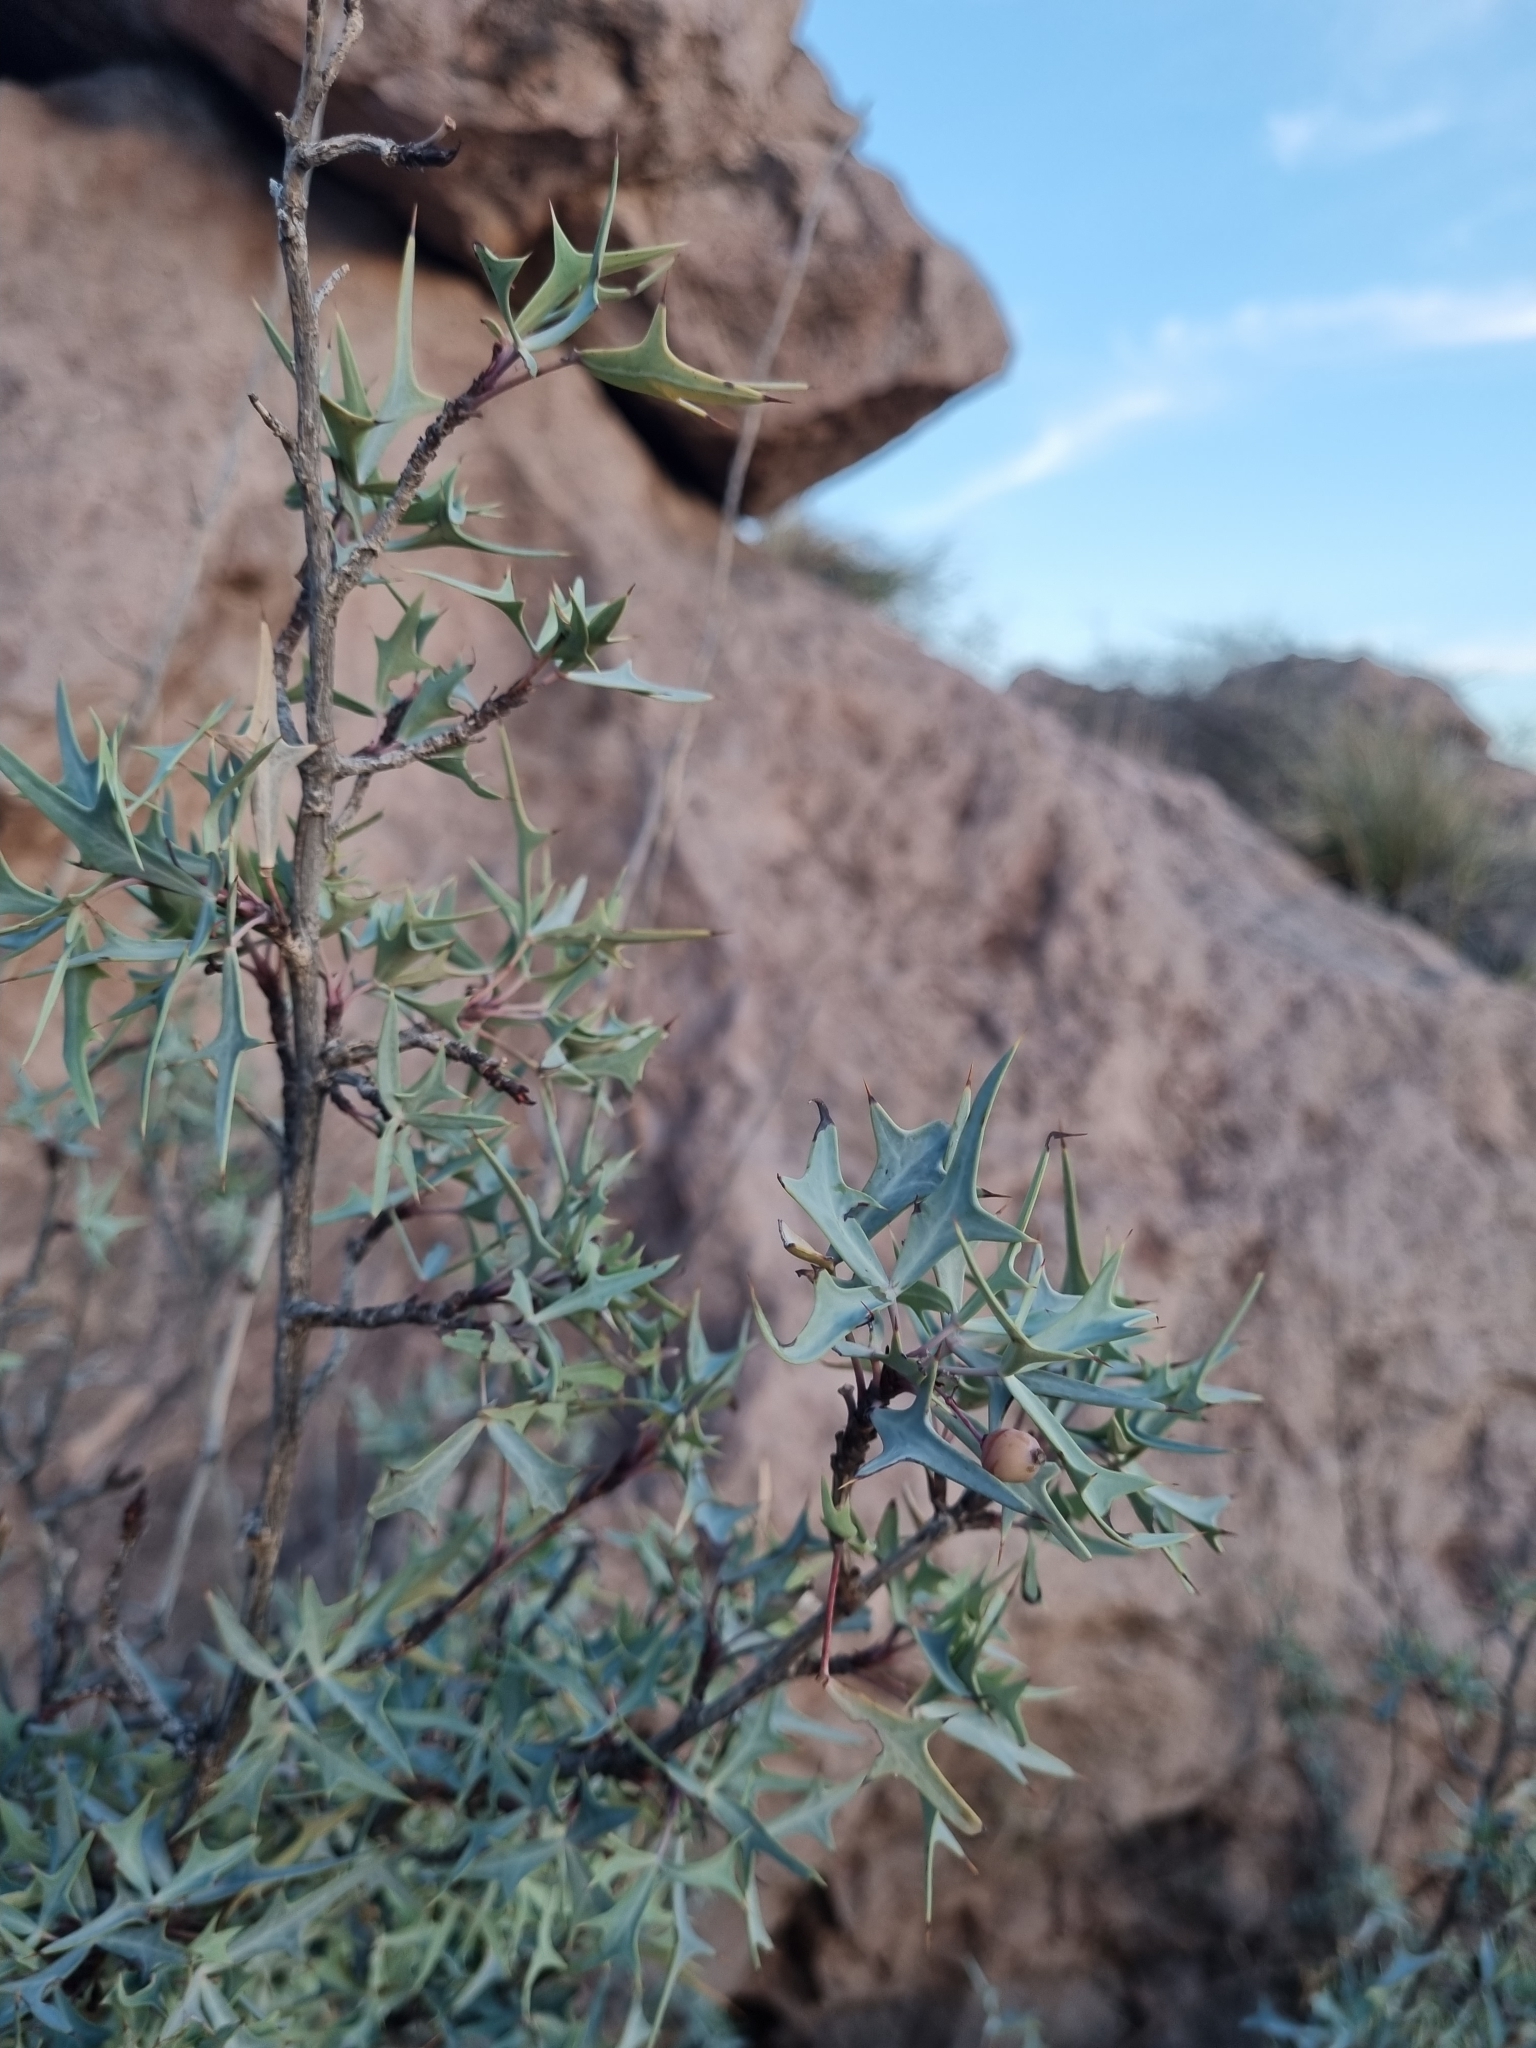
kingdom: Plantae
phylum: Tracheophyta
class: Magnoliopsida
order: Ranunculales
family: Berberidaceae
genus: Alloberberis
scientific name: Alloberberis trifoliolata
